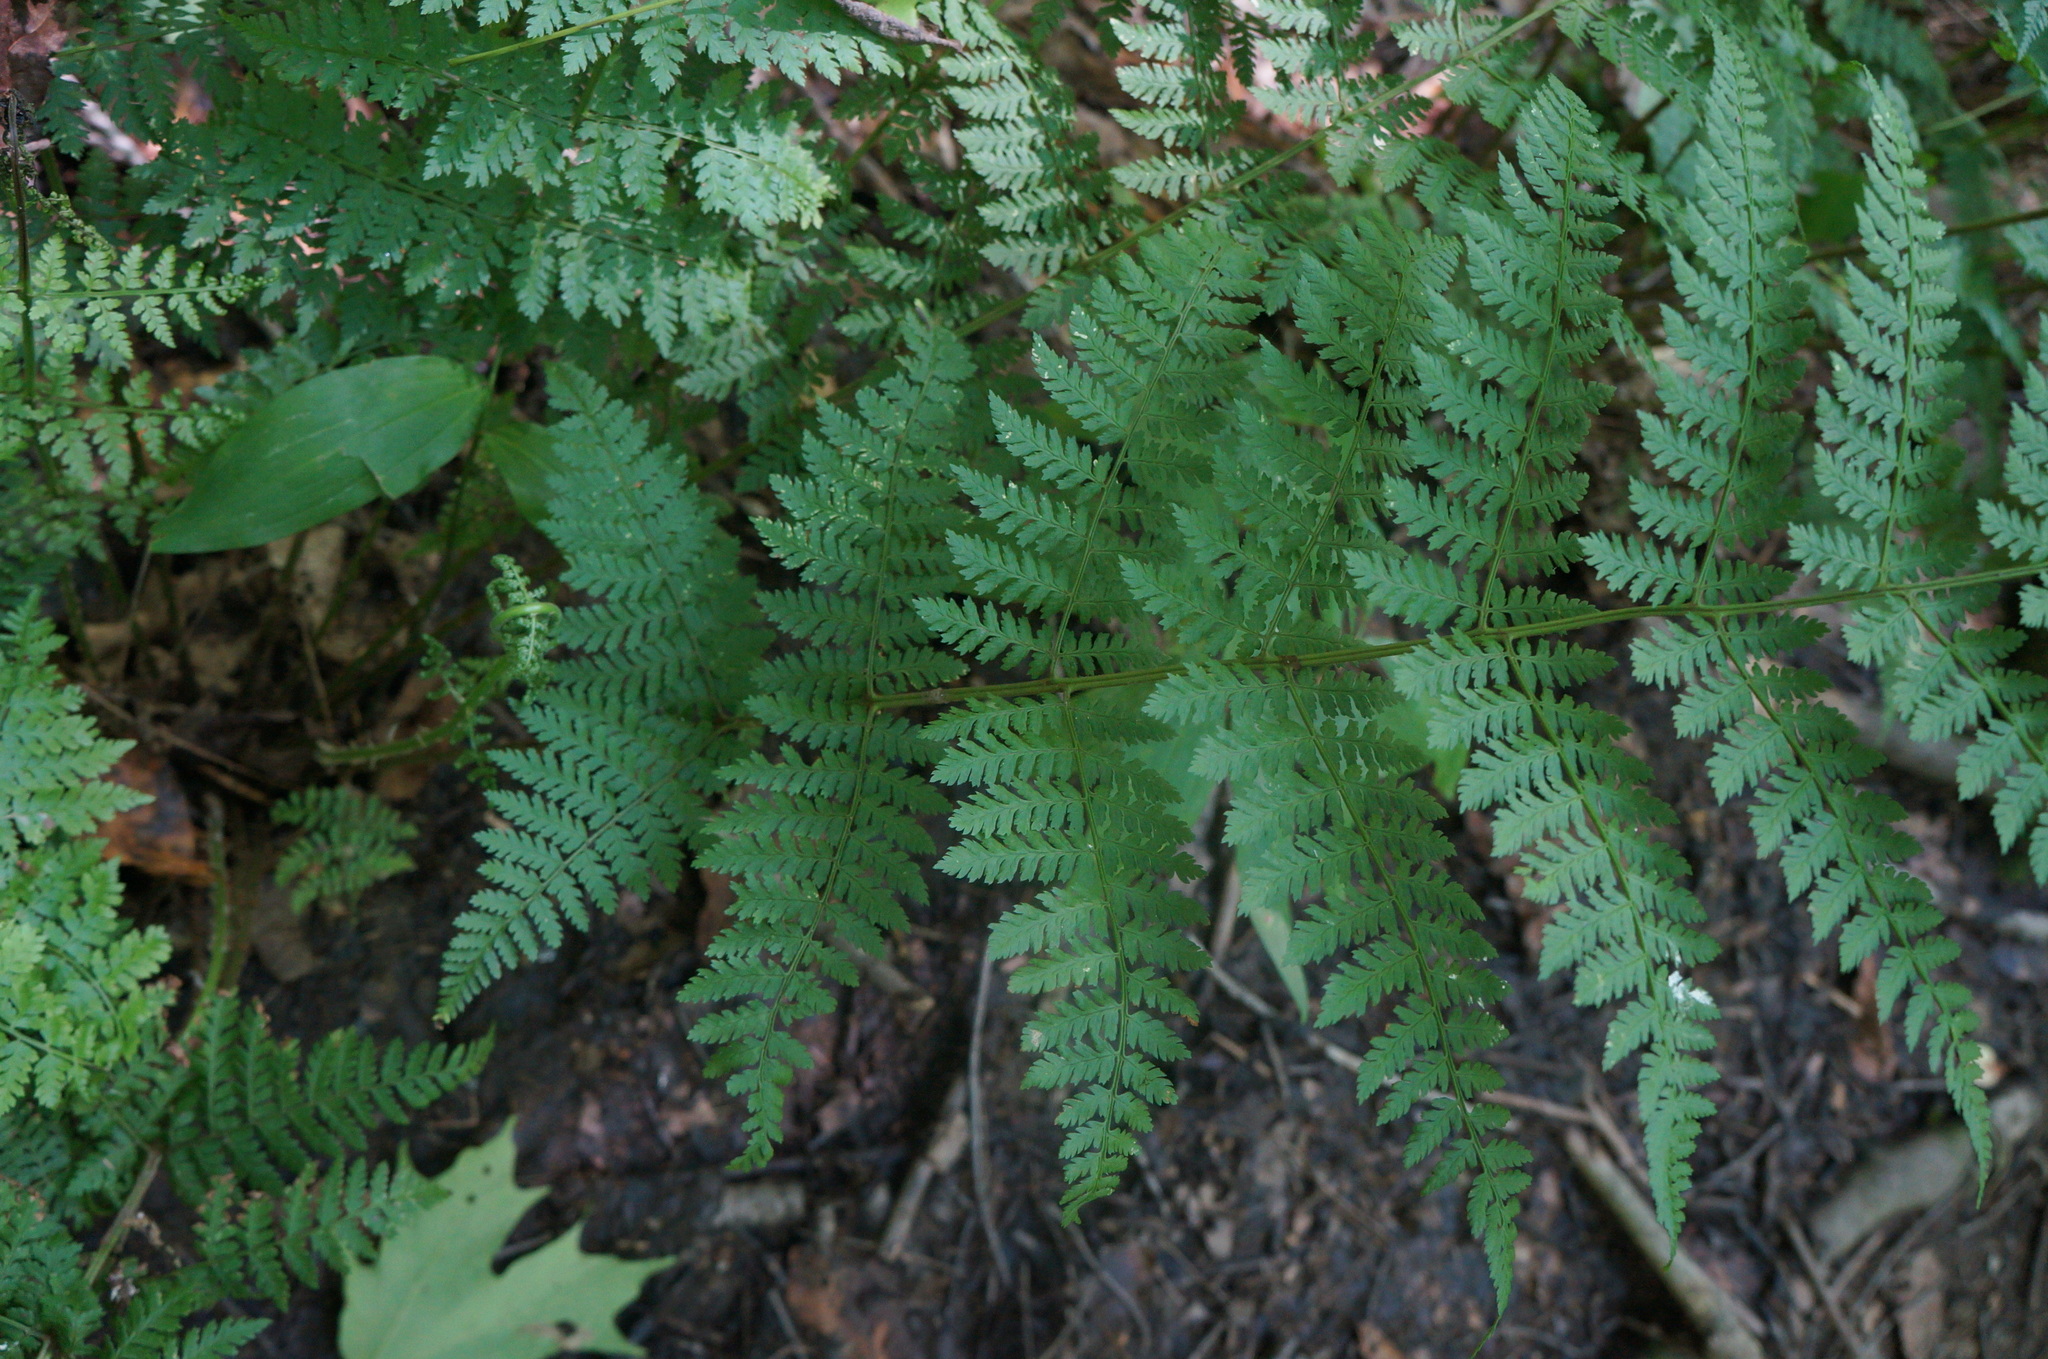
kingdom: Plantae
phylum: Tracheophyta
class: Polypodiopsida
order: Polypodiales
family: Dryopteridaceae
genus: Dryopteris
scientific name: Dryopteris intermedia
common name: Evergreen wood fern
